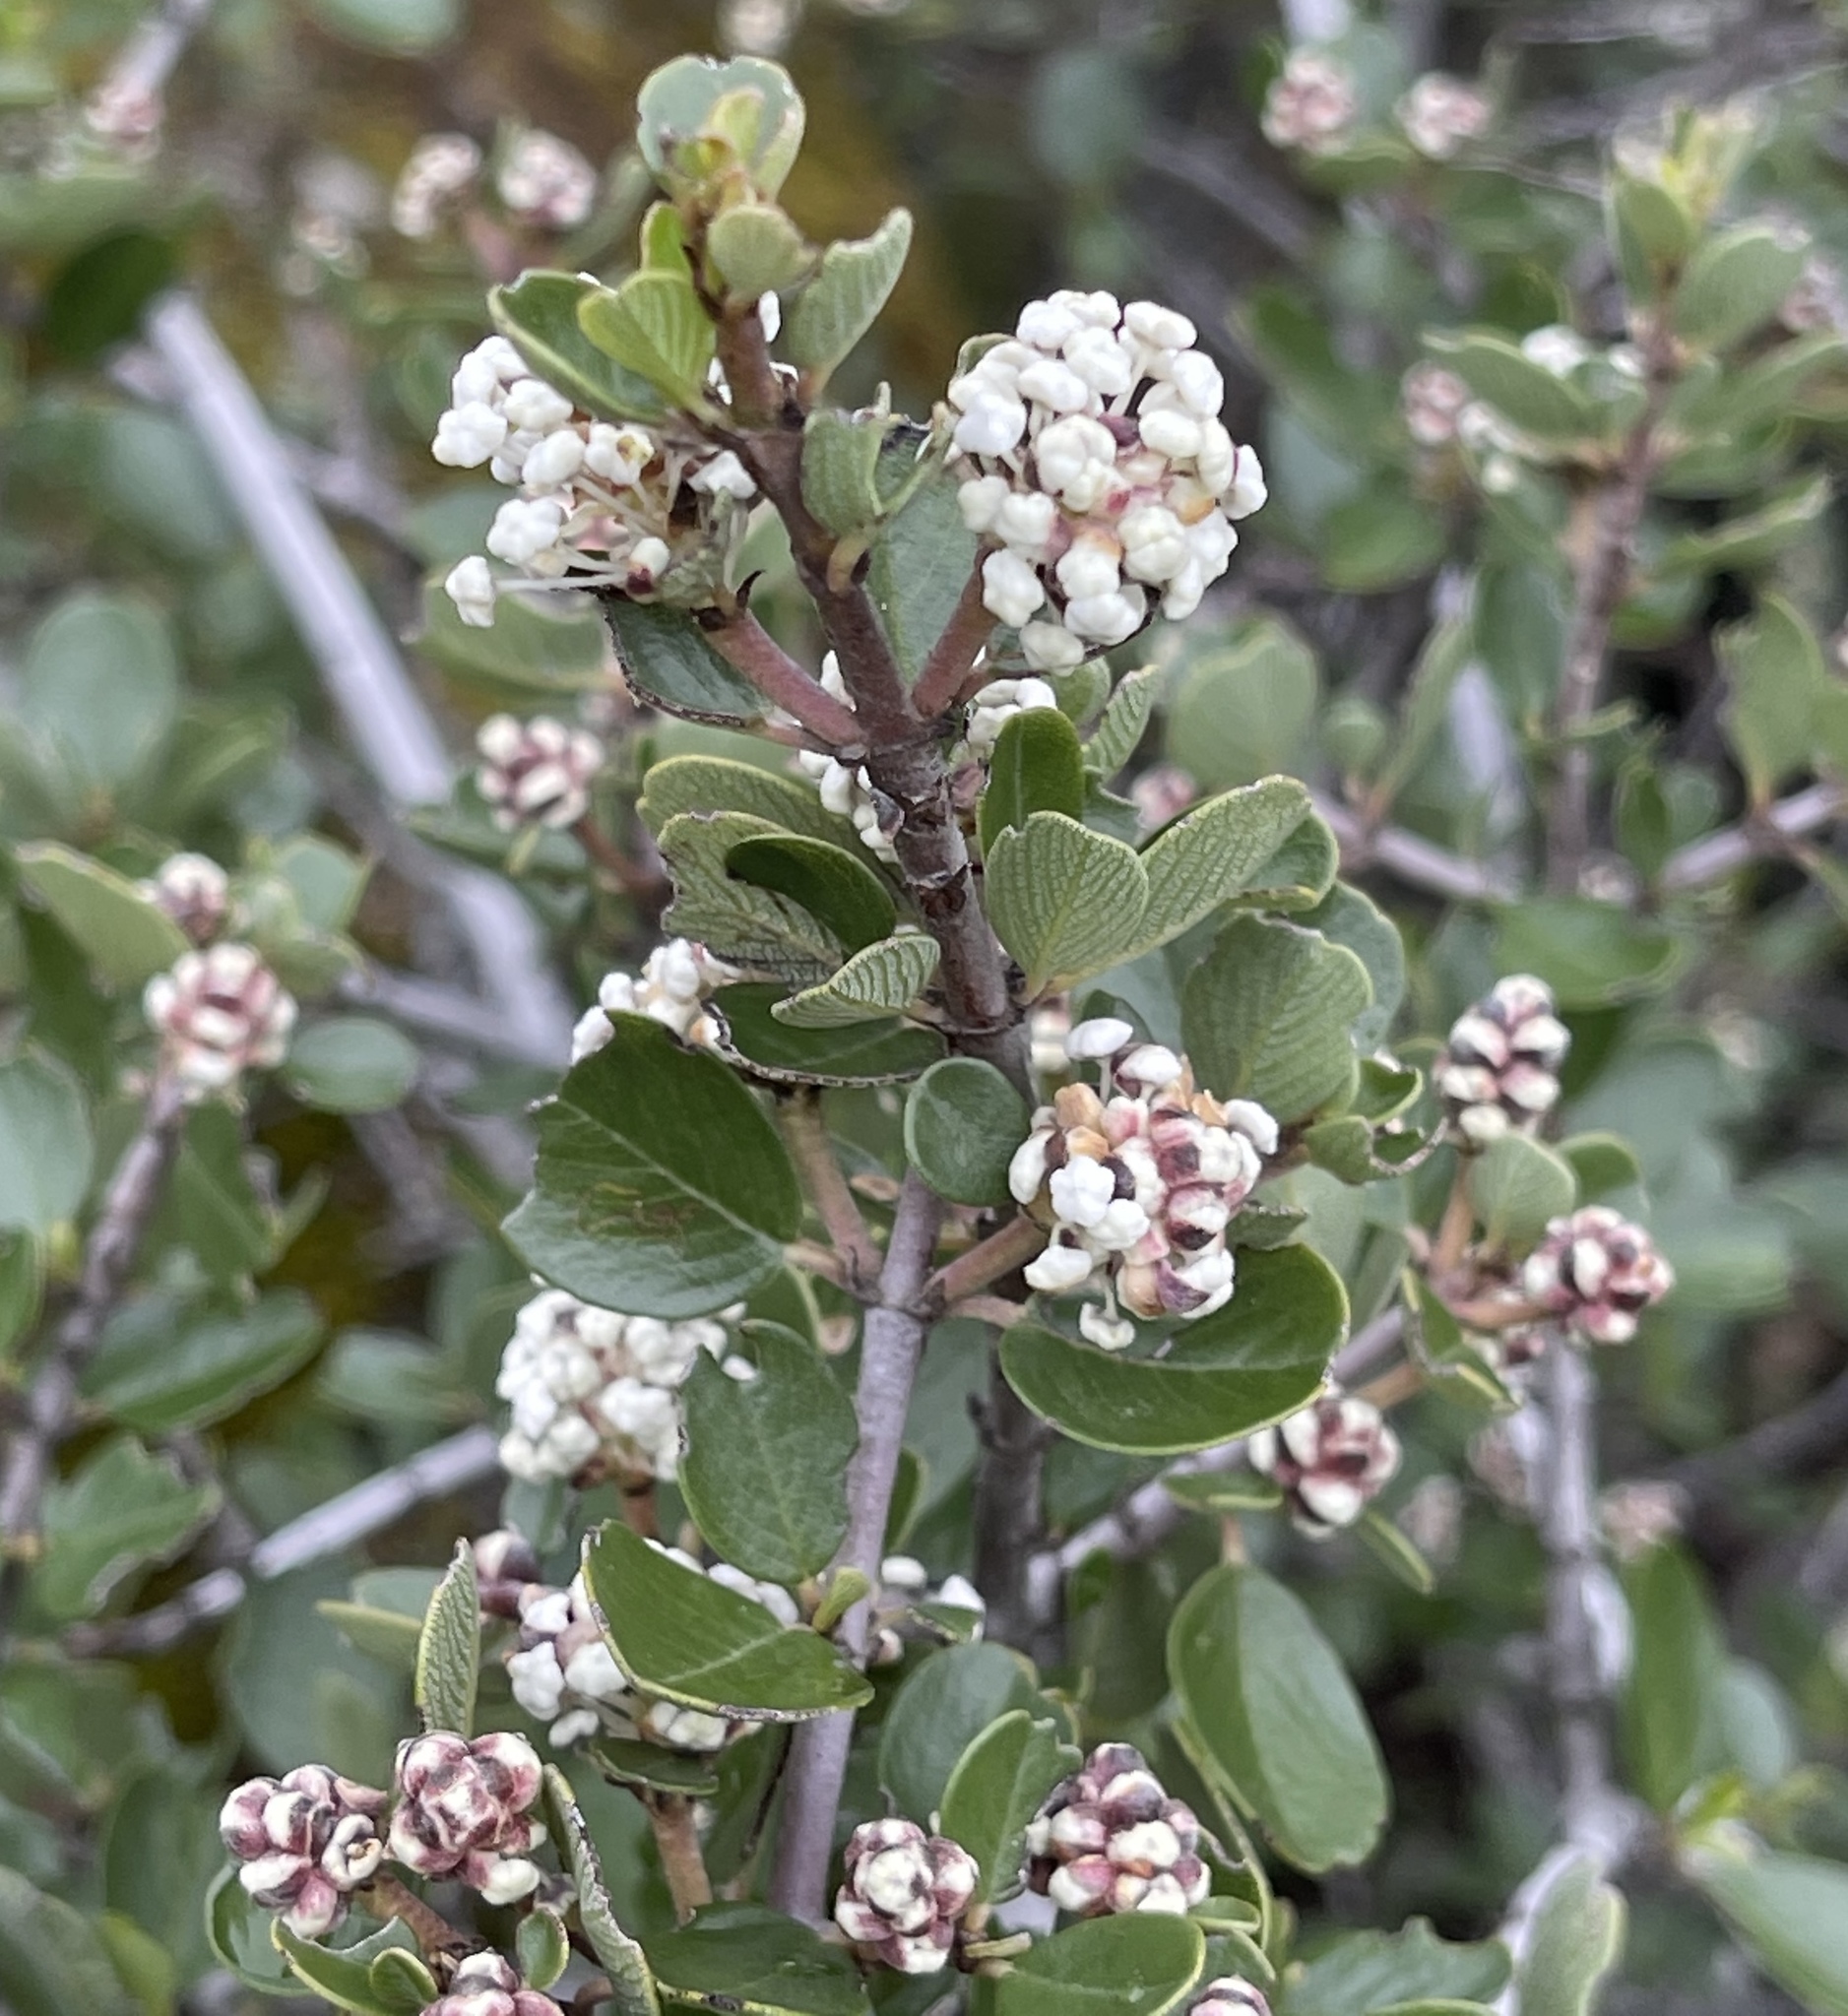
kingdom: Plantae
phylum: Tracheophyta
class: Magnoliopsida
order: Rosales
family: Rhamnaceae
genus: Ceanothus
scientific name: Ceanothus cuneatus
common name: Cuneate ceanothus
